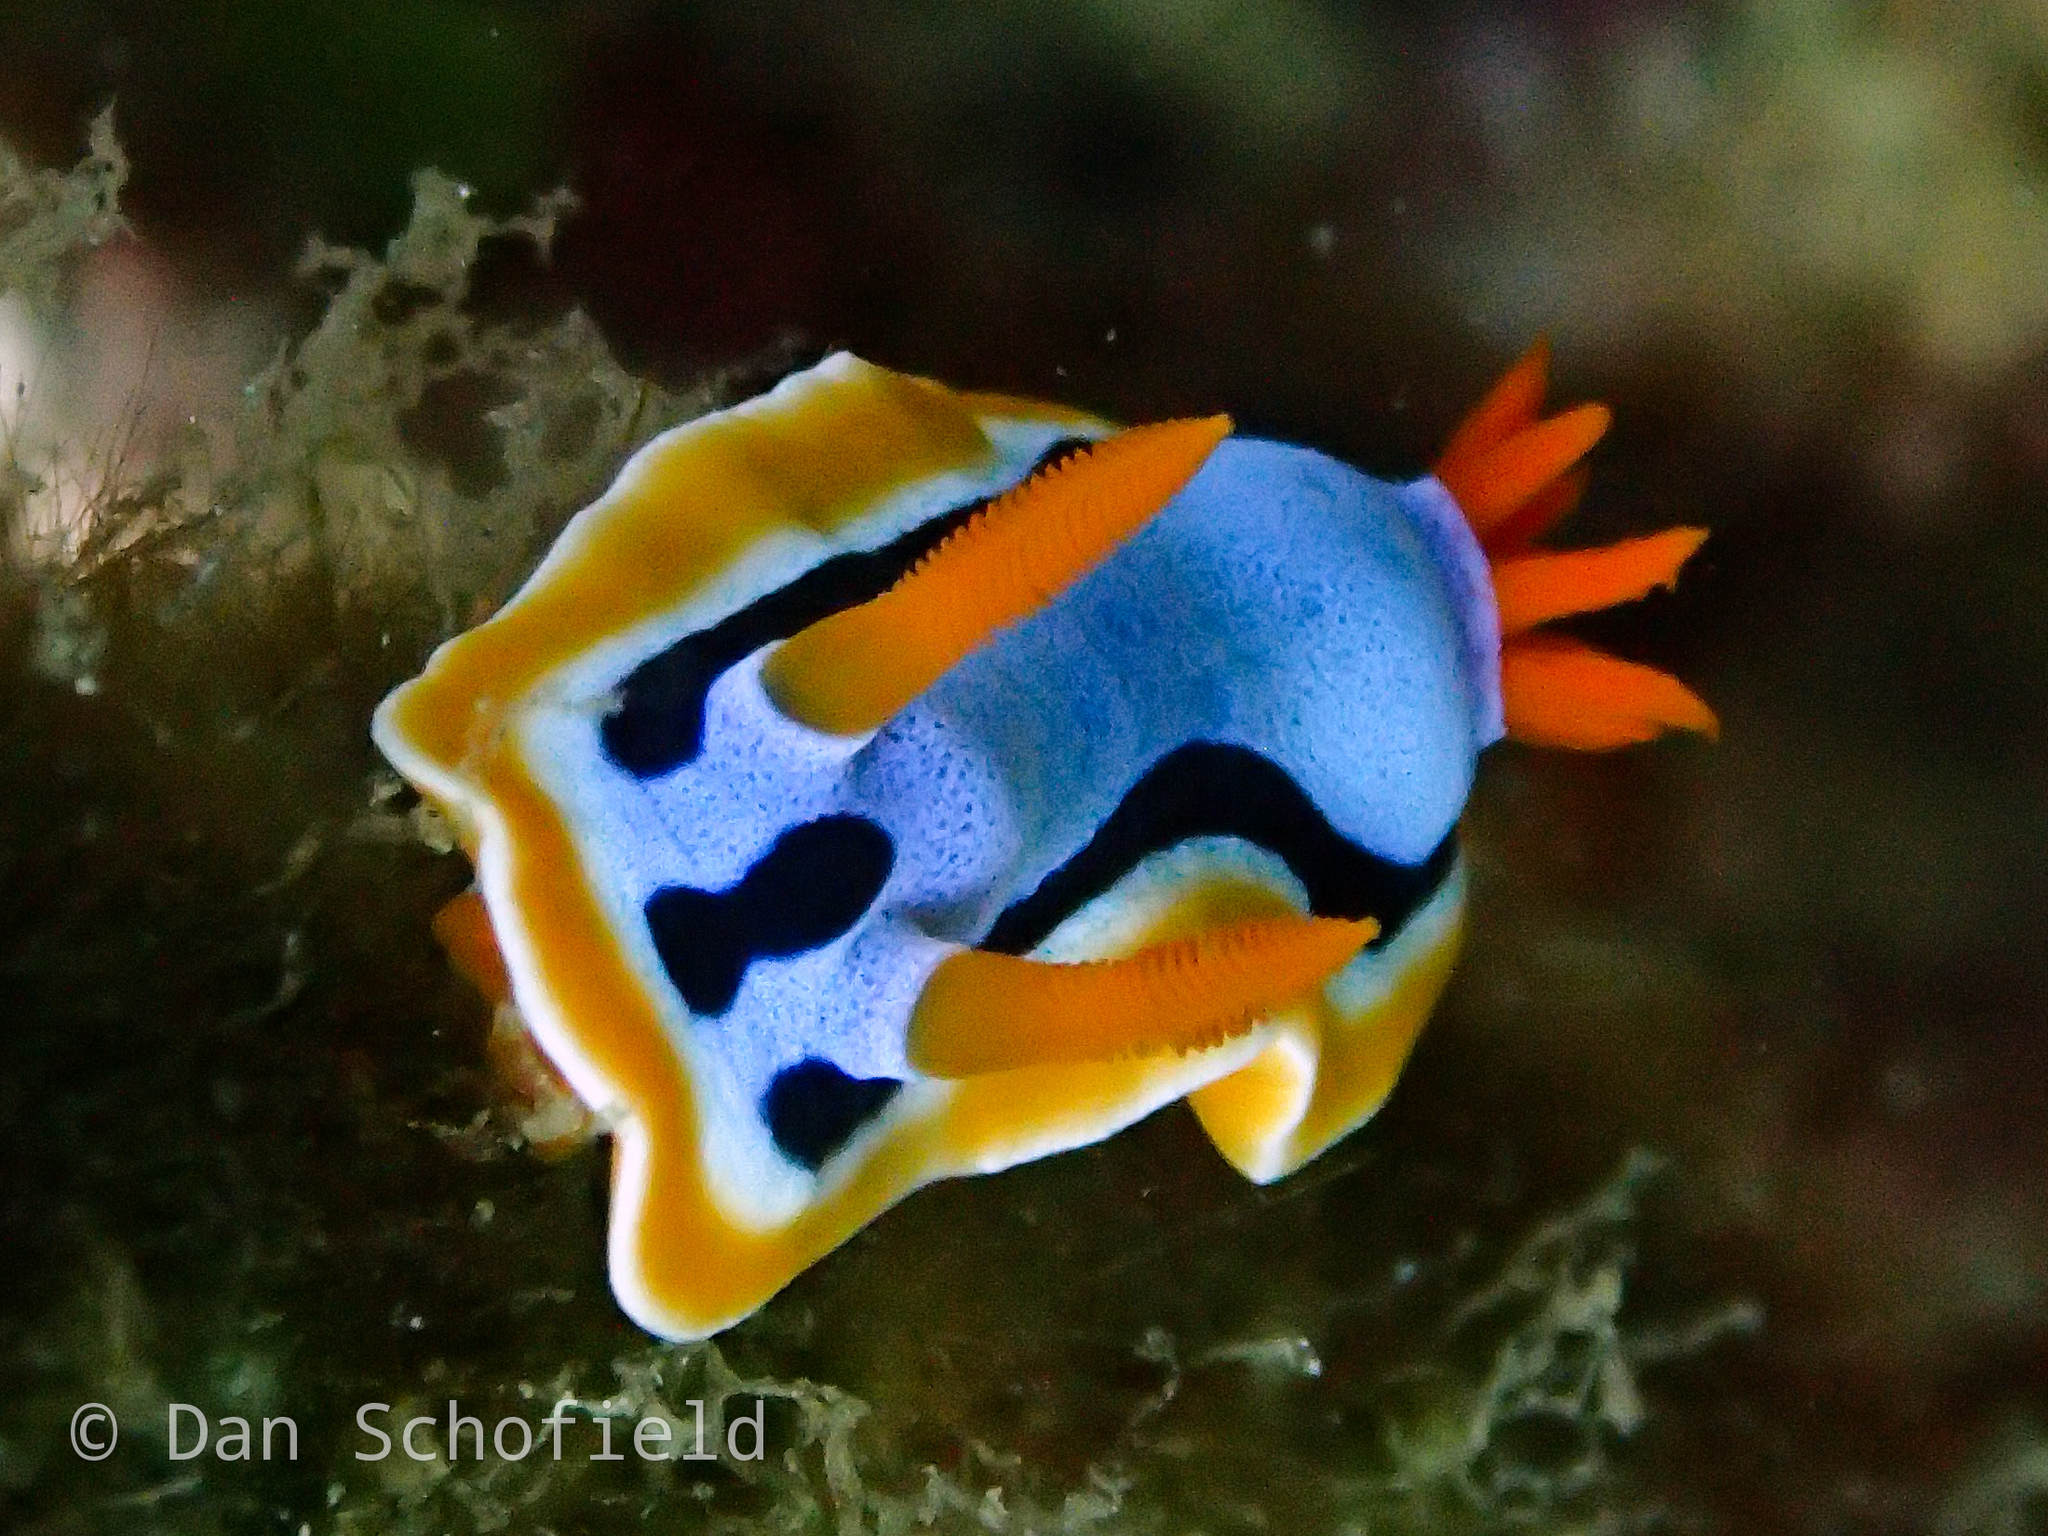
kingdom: Animalia
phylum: Mollusca
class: Gastropoda
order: Nudibranchia
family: Chromodorididae
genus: Chromodoris
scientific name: Chromodoris annae
